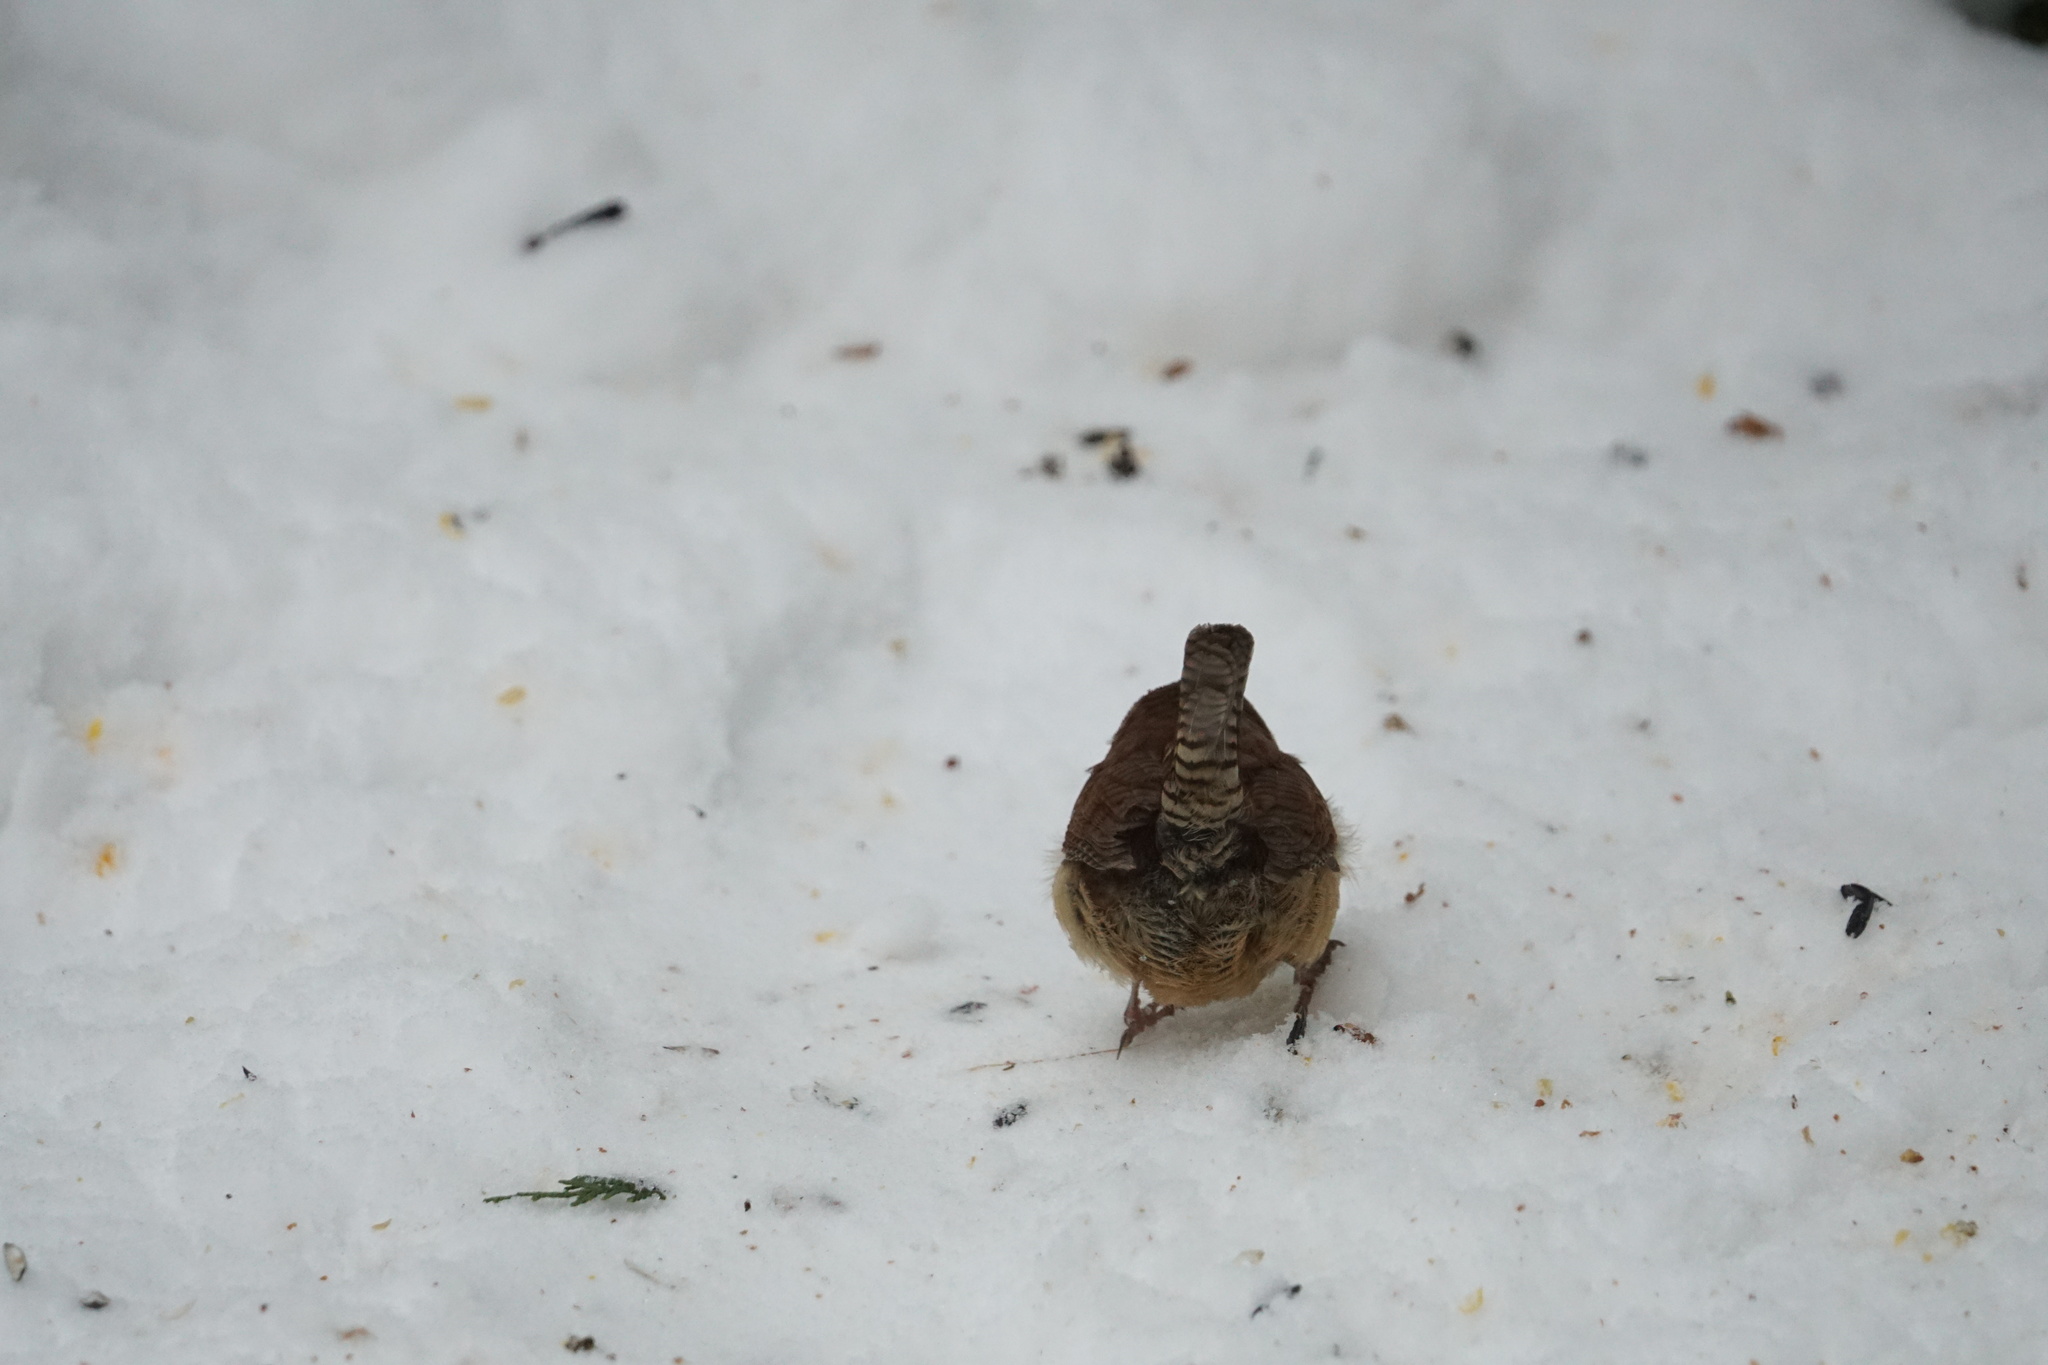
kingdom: Animalia
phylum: Chordata
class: Aves
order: Passeriformes
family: Troglodytidae
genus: Thryothorus
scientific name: Thryothorus ludovicianus
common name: Carolina wren
